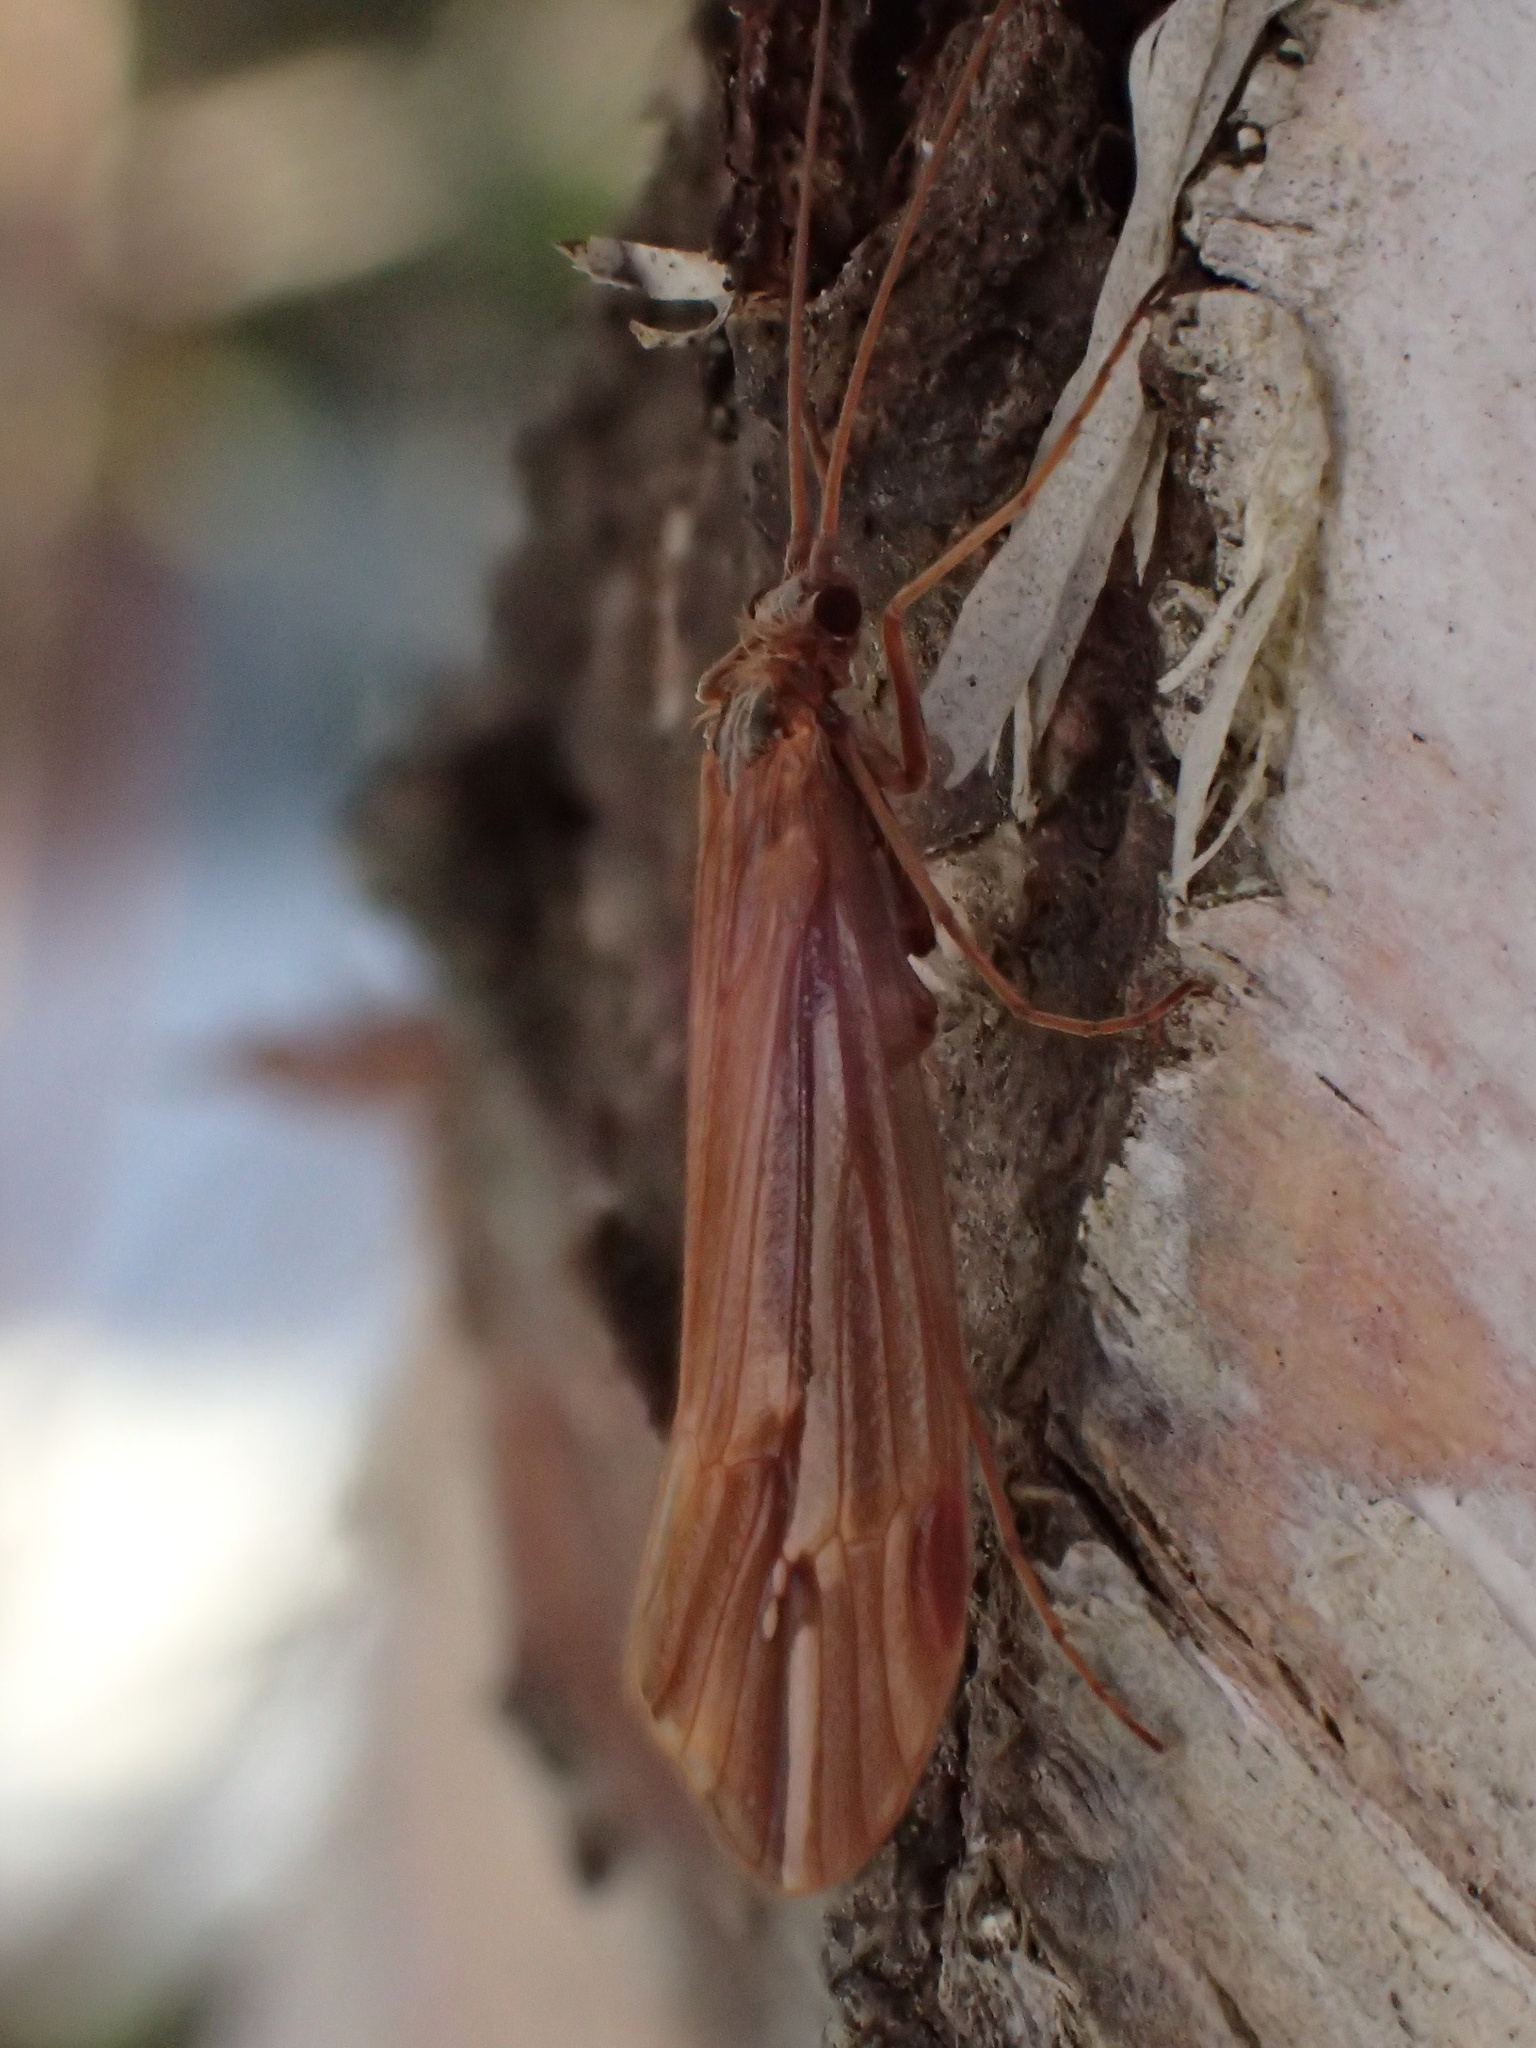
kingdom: Animalia
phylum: Arthropoda
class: Insecta
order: Trichoptera
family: Limnephilidae
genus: Psychoglypha
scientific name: Psychoglypha subborealis
